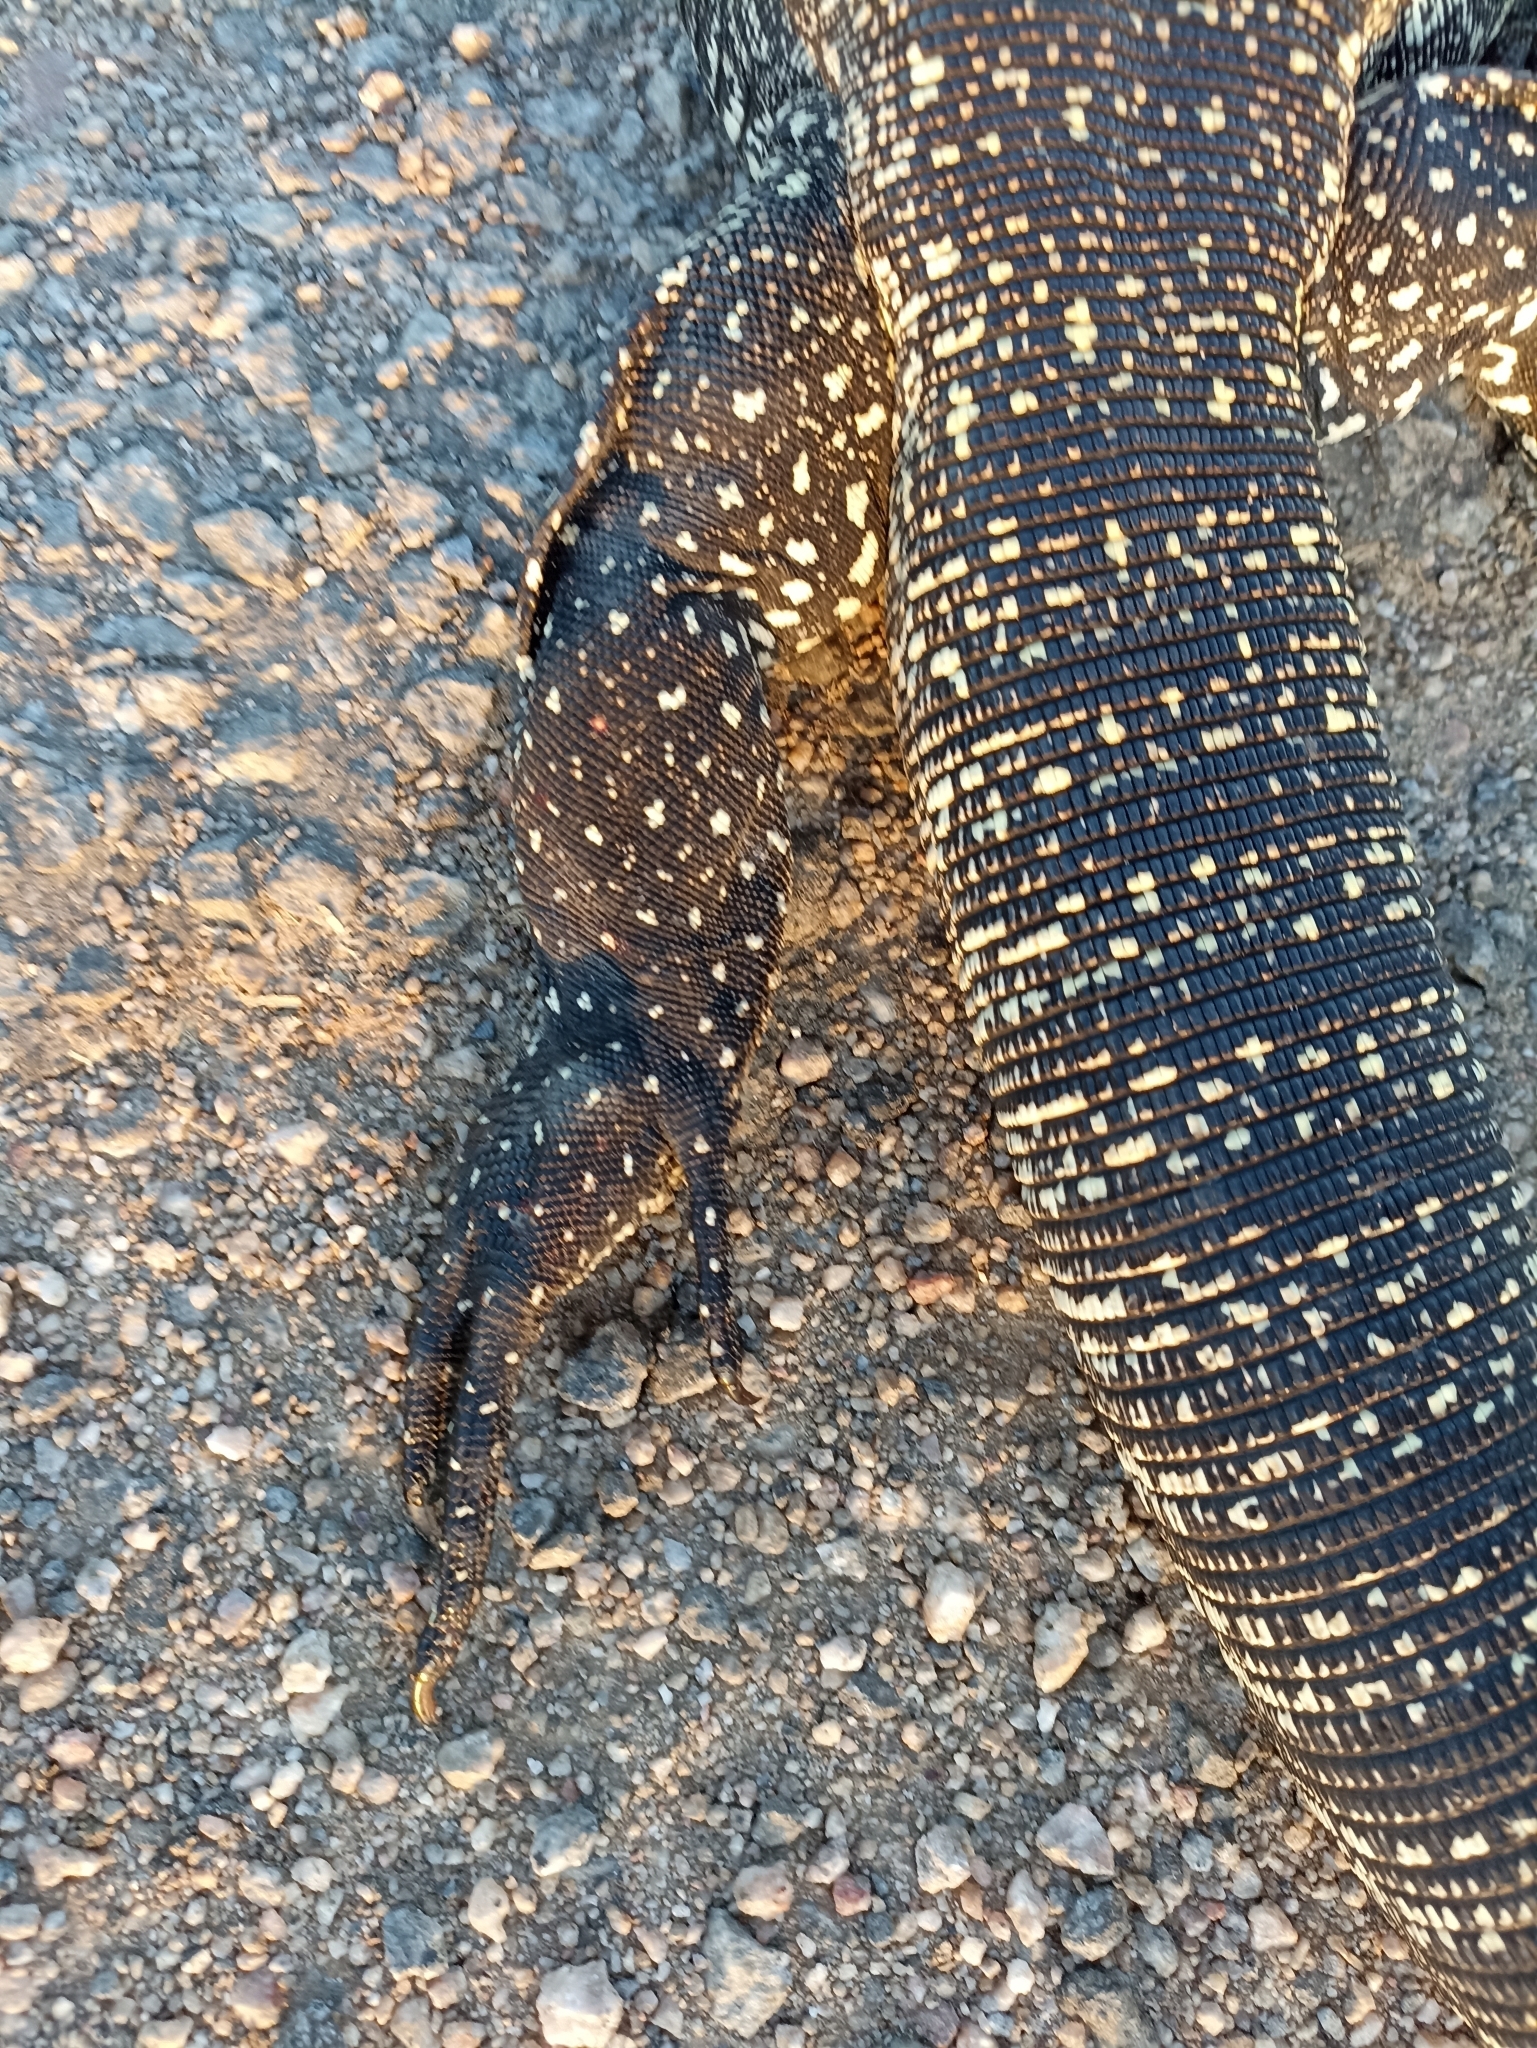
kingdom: Animalia
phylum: Chordata
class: Squamata
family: Teiidae
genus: Salvator
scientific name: Salvator merianae
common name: Argentine black and white tegu
